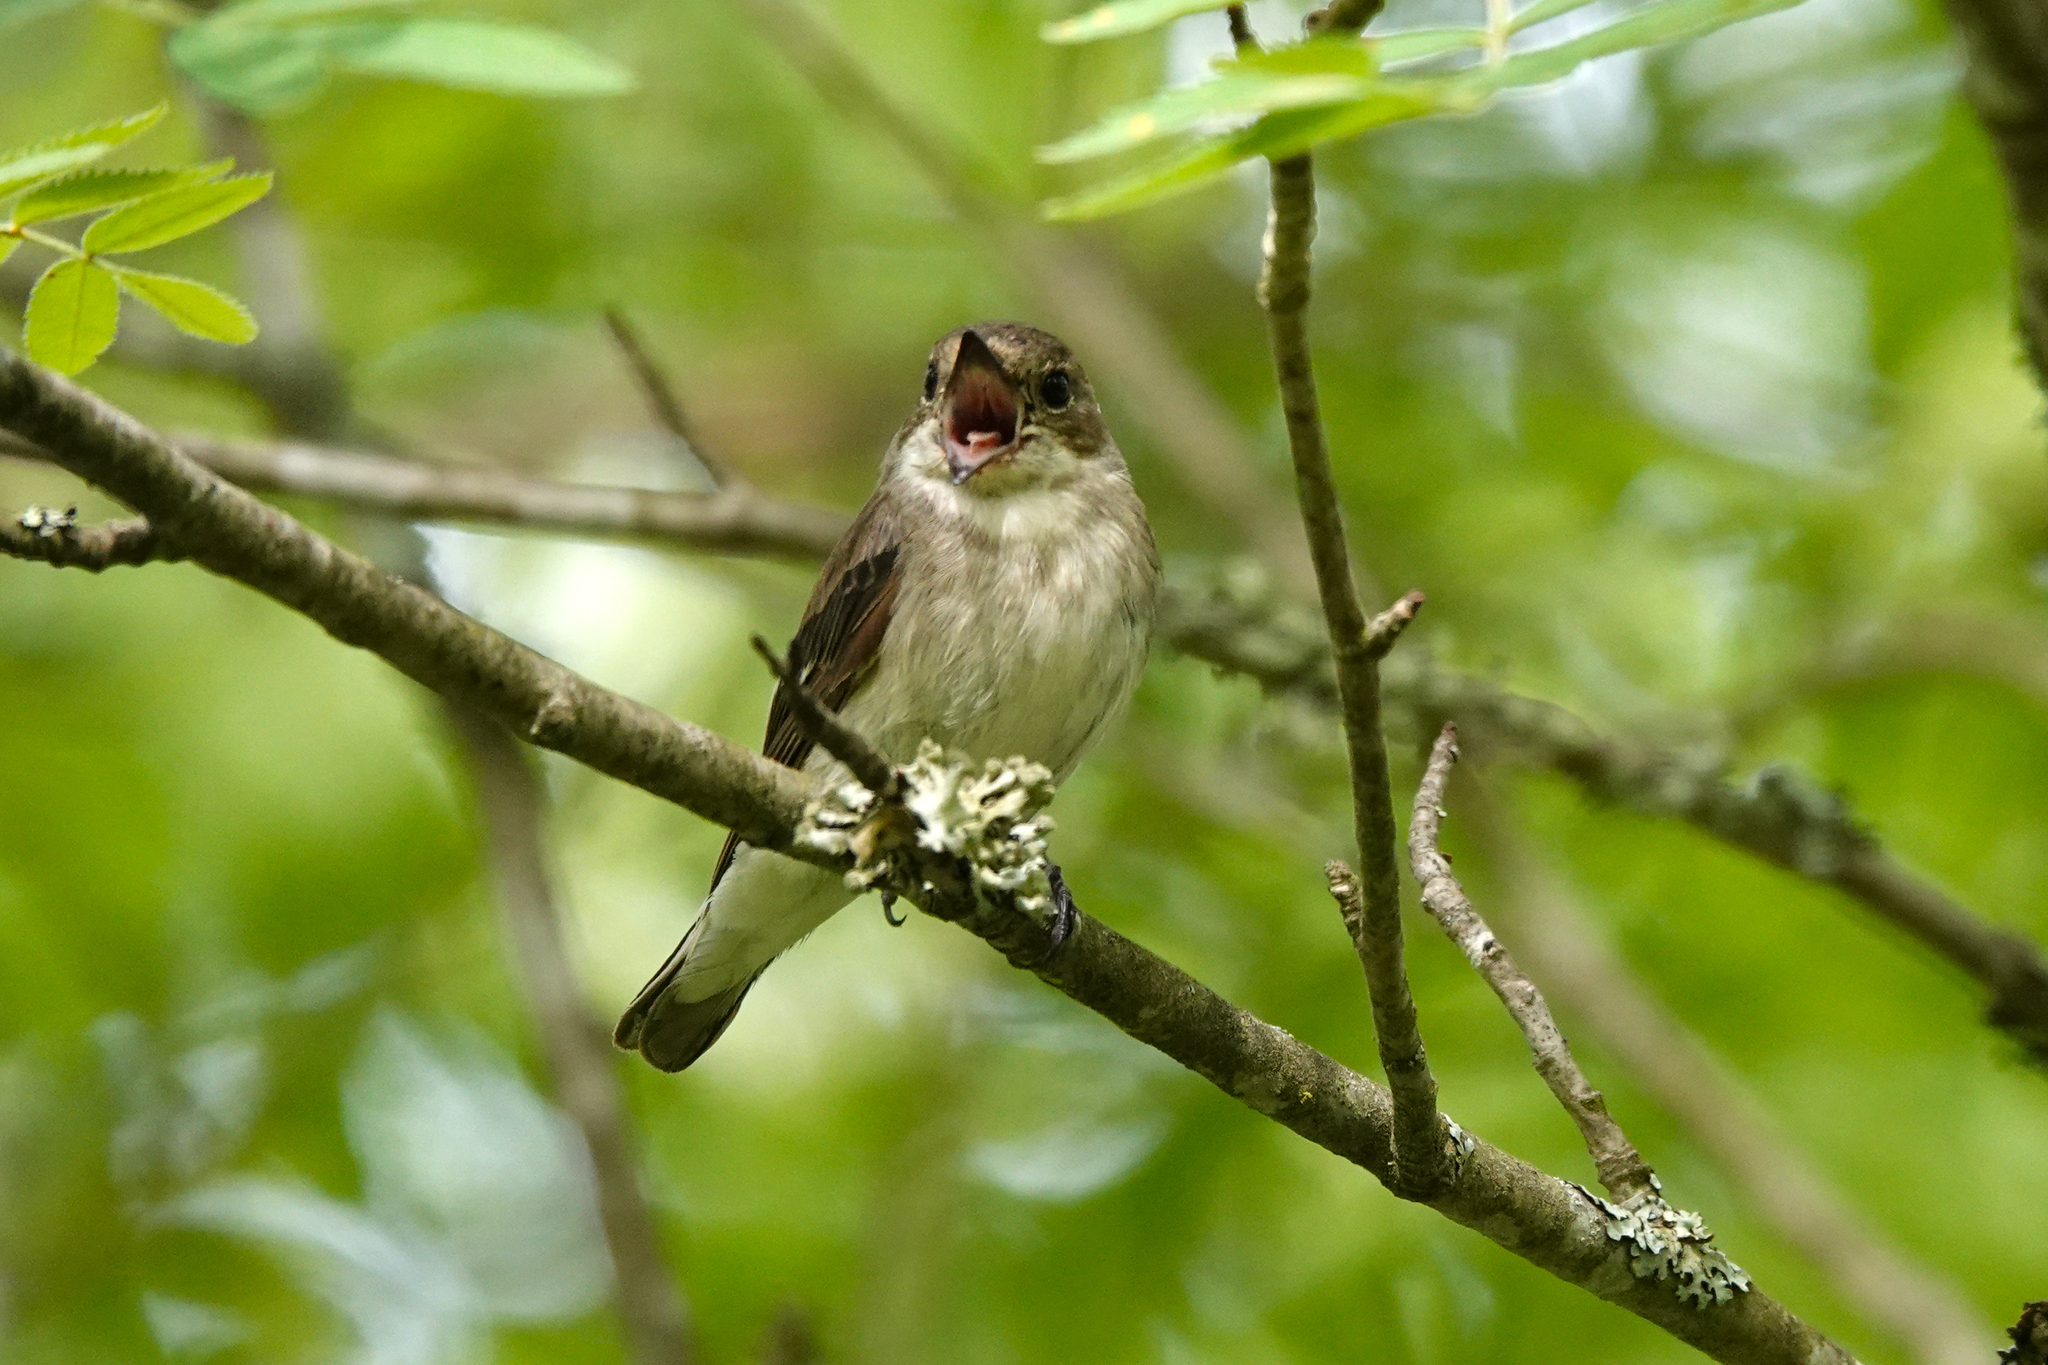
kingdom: Animalia
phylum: Chordata
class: Aves
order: Passeriformes
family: Muscicapidae
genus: Ficedula
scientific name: Ficedula hypoleuca
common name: European pied flycatcher
